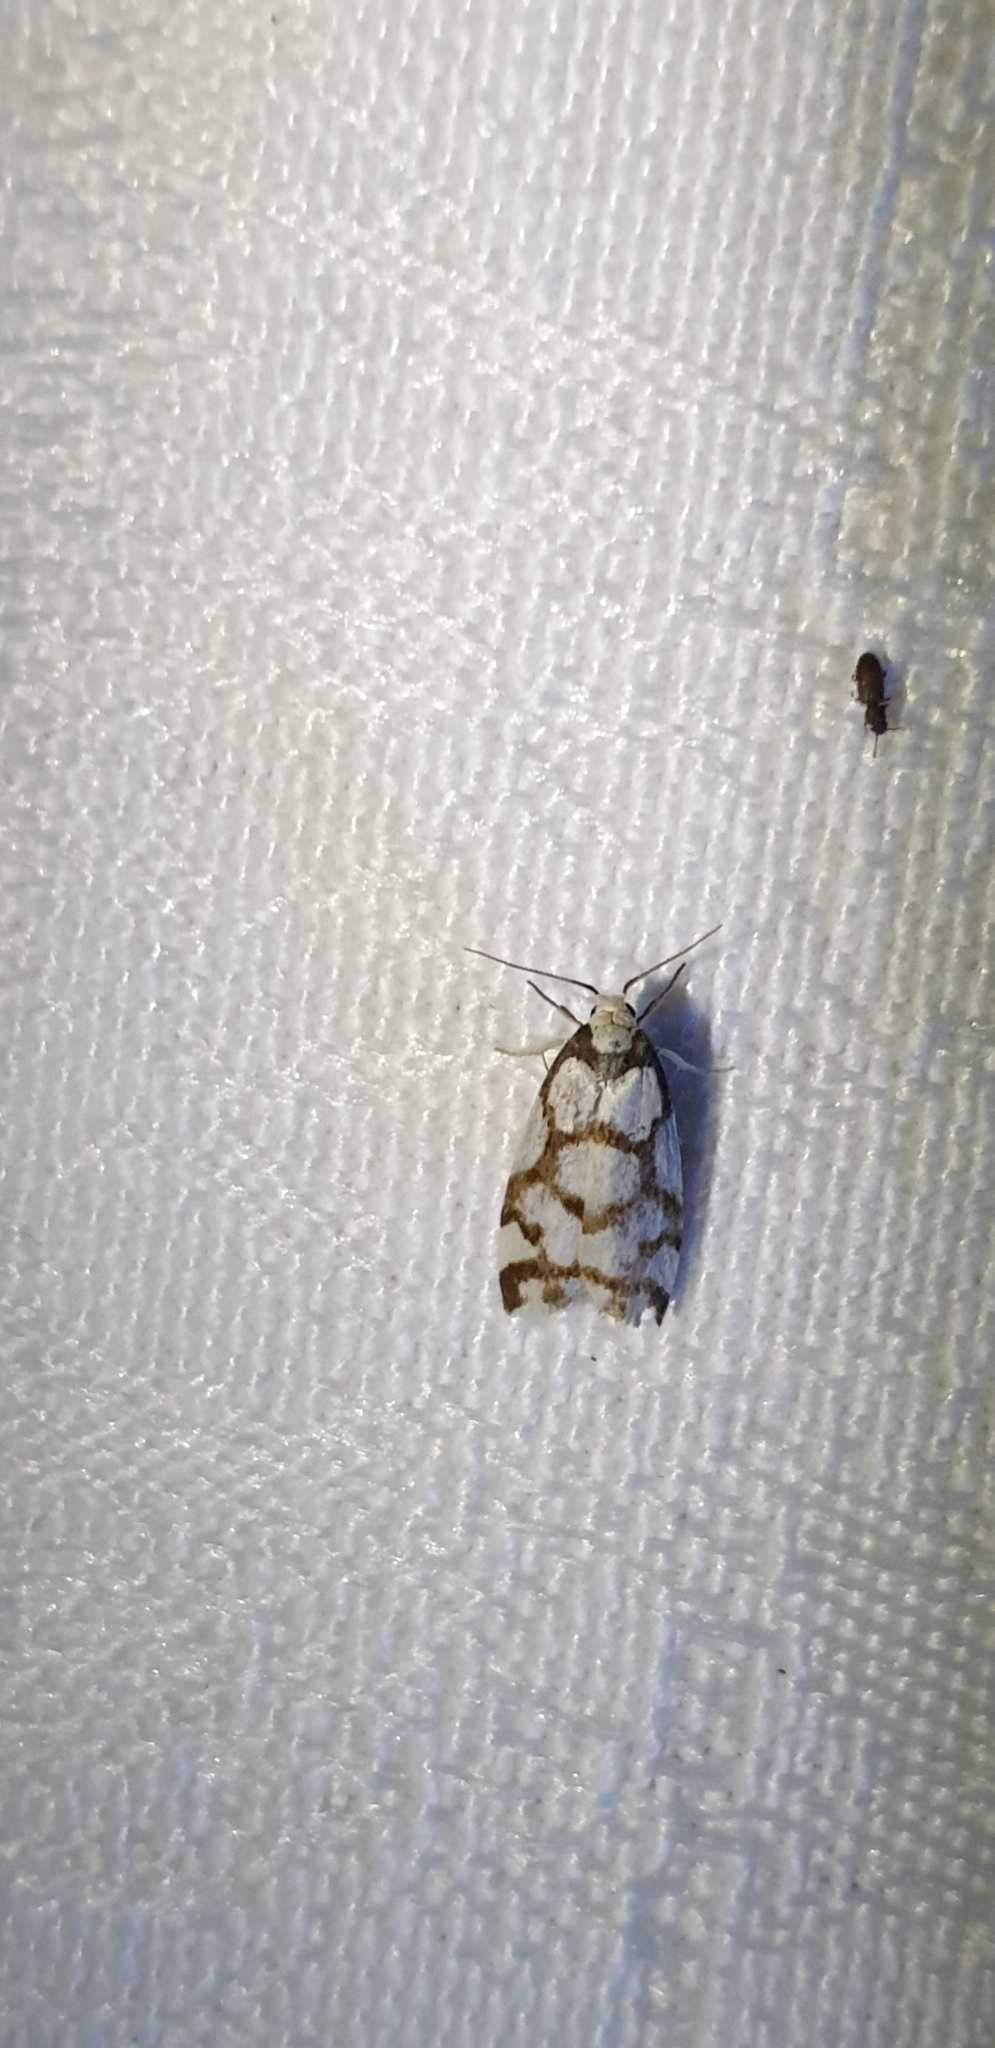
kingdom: Animalia
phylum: Arthropoda
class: Insecta
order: Lepidoptera
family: Erebidae
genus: Scaptesyle
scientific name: Scaptesyle dichotoma
